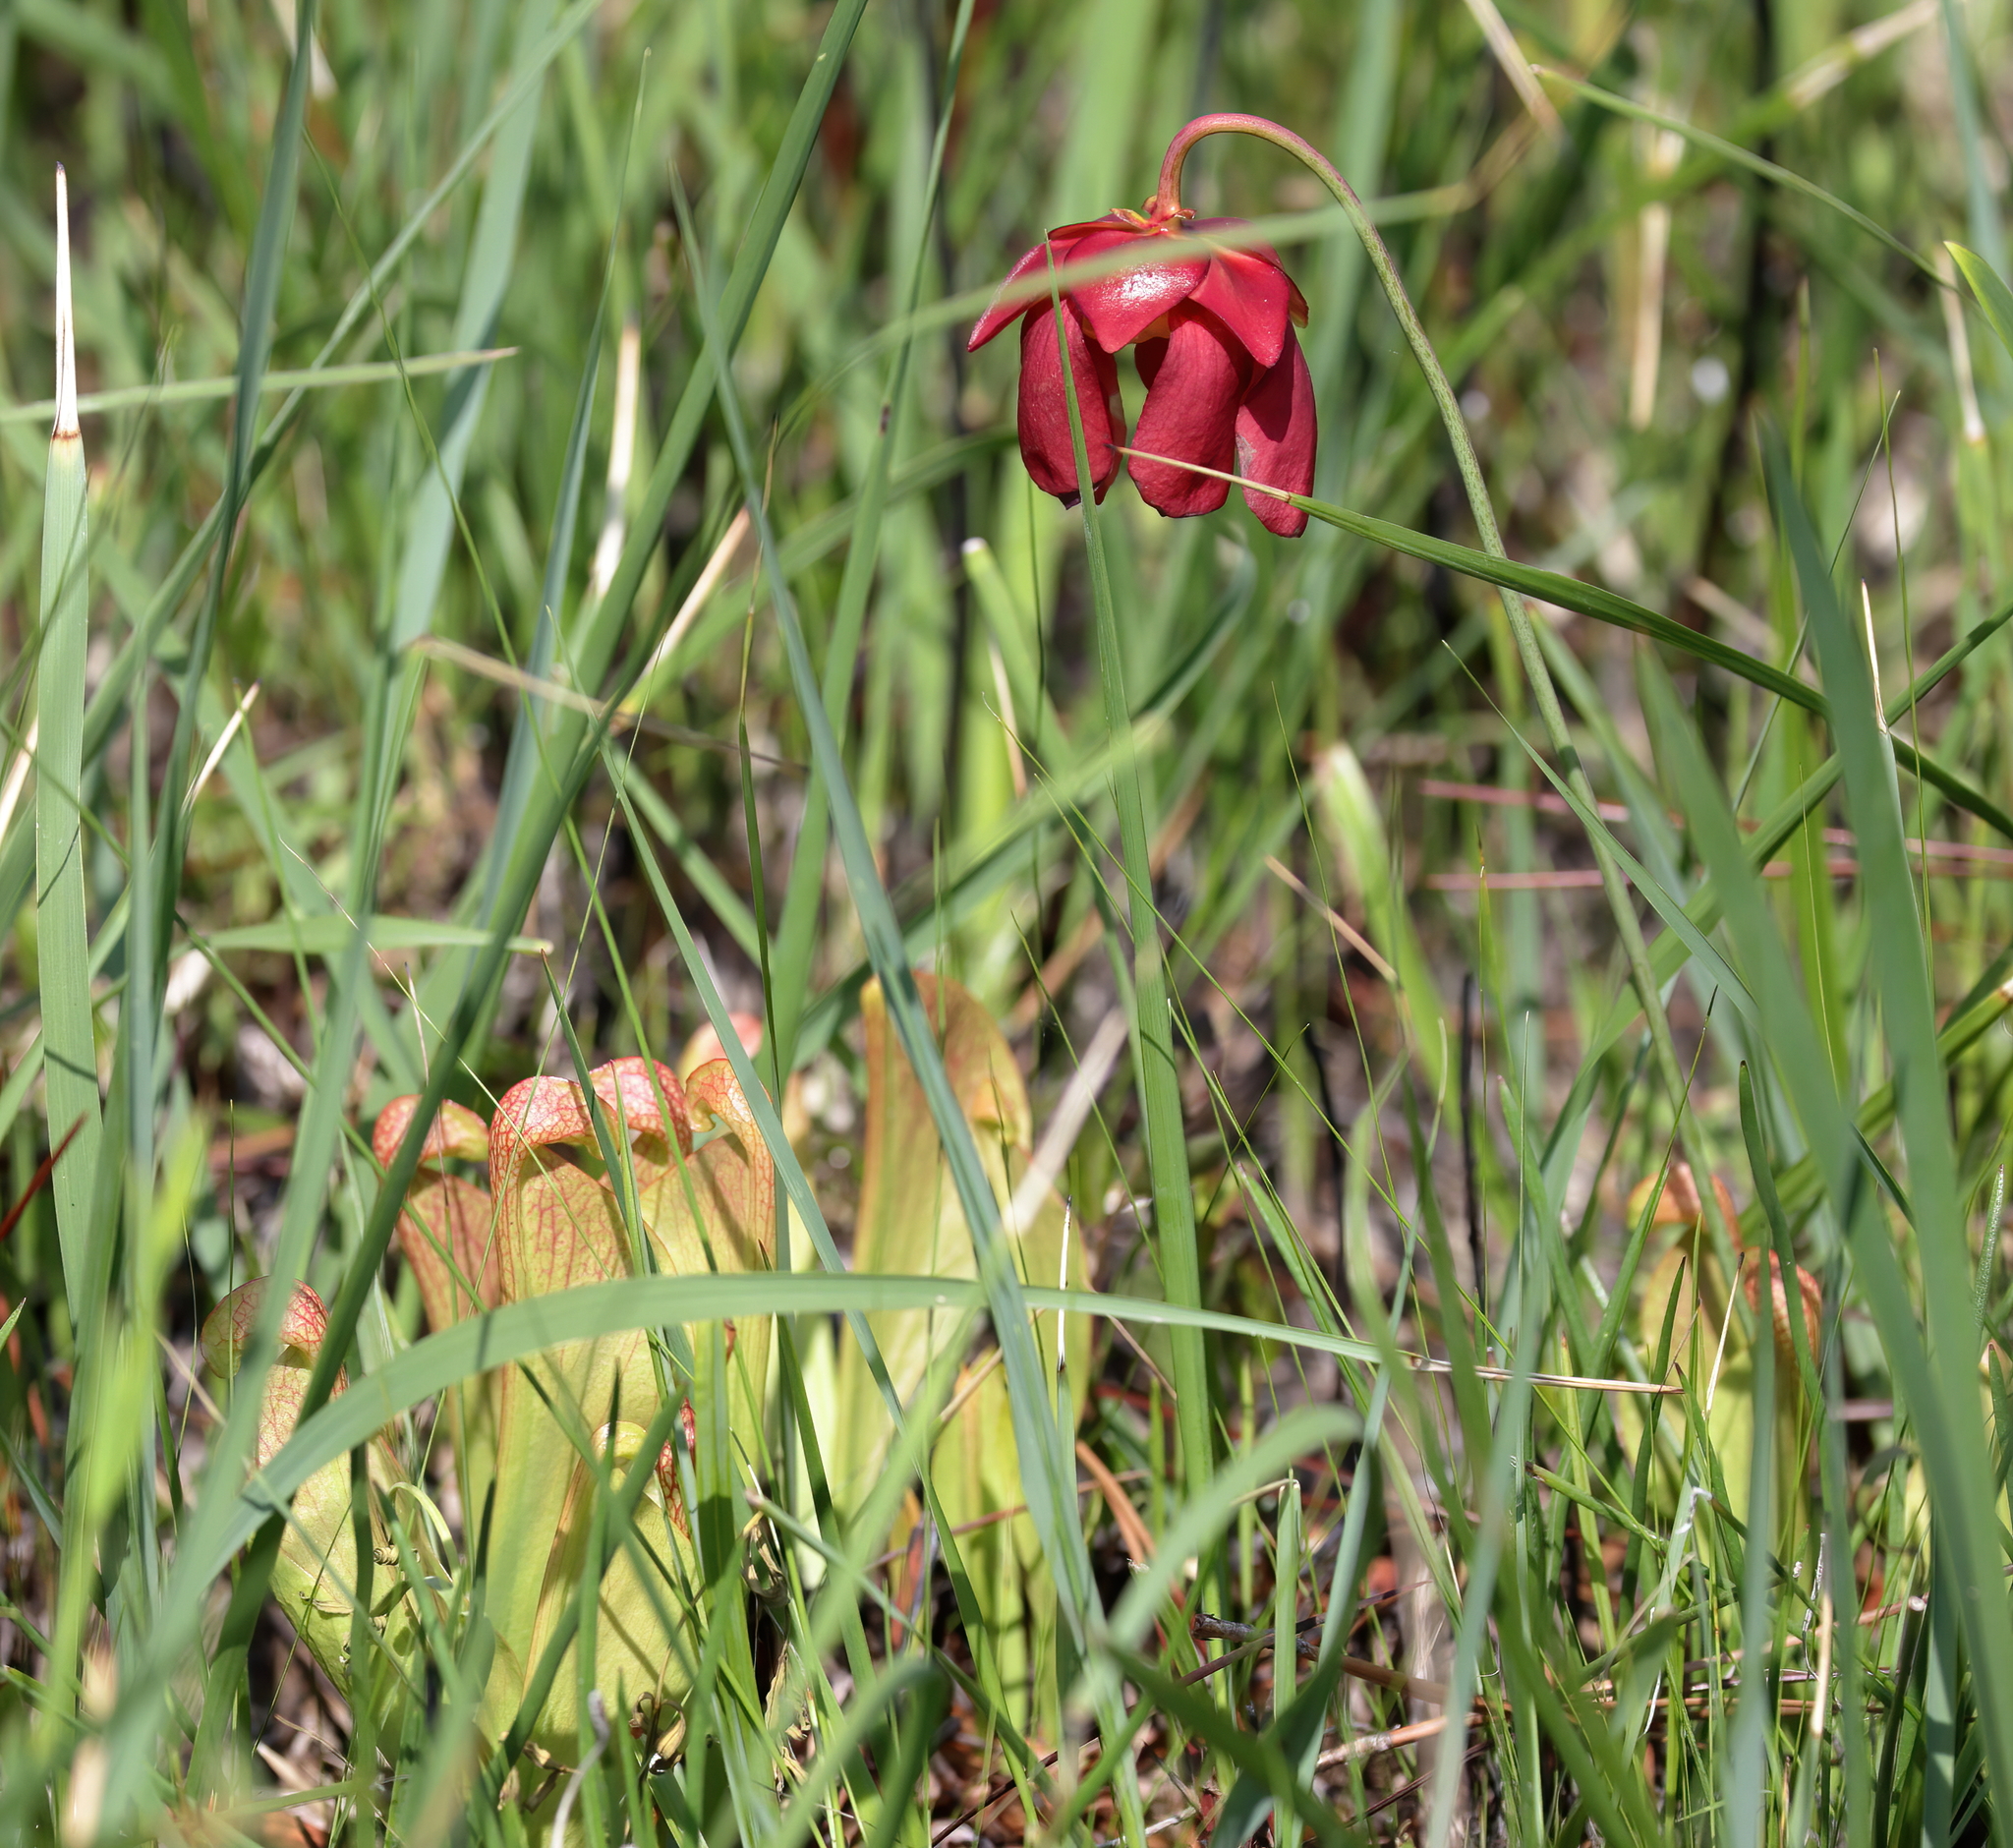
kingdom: Plantae
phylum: Tracheophyta
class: Magnoliopsida
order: Ericales
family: Sarraceniaceae
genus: Sarracenia
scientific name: Sarracenia psittacina
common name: Parrot pitcherplant
